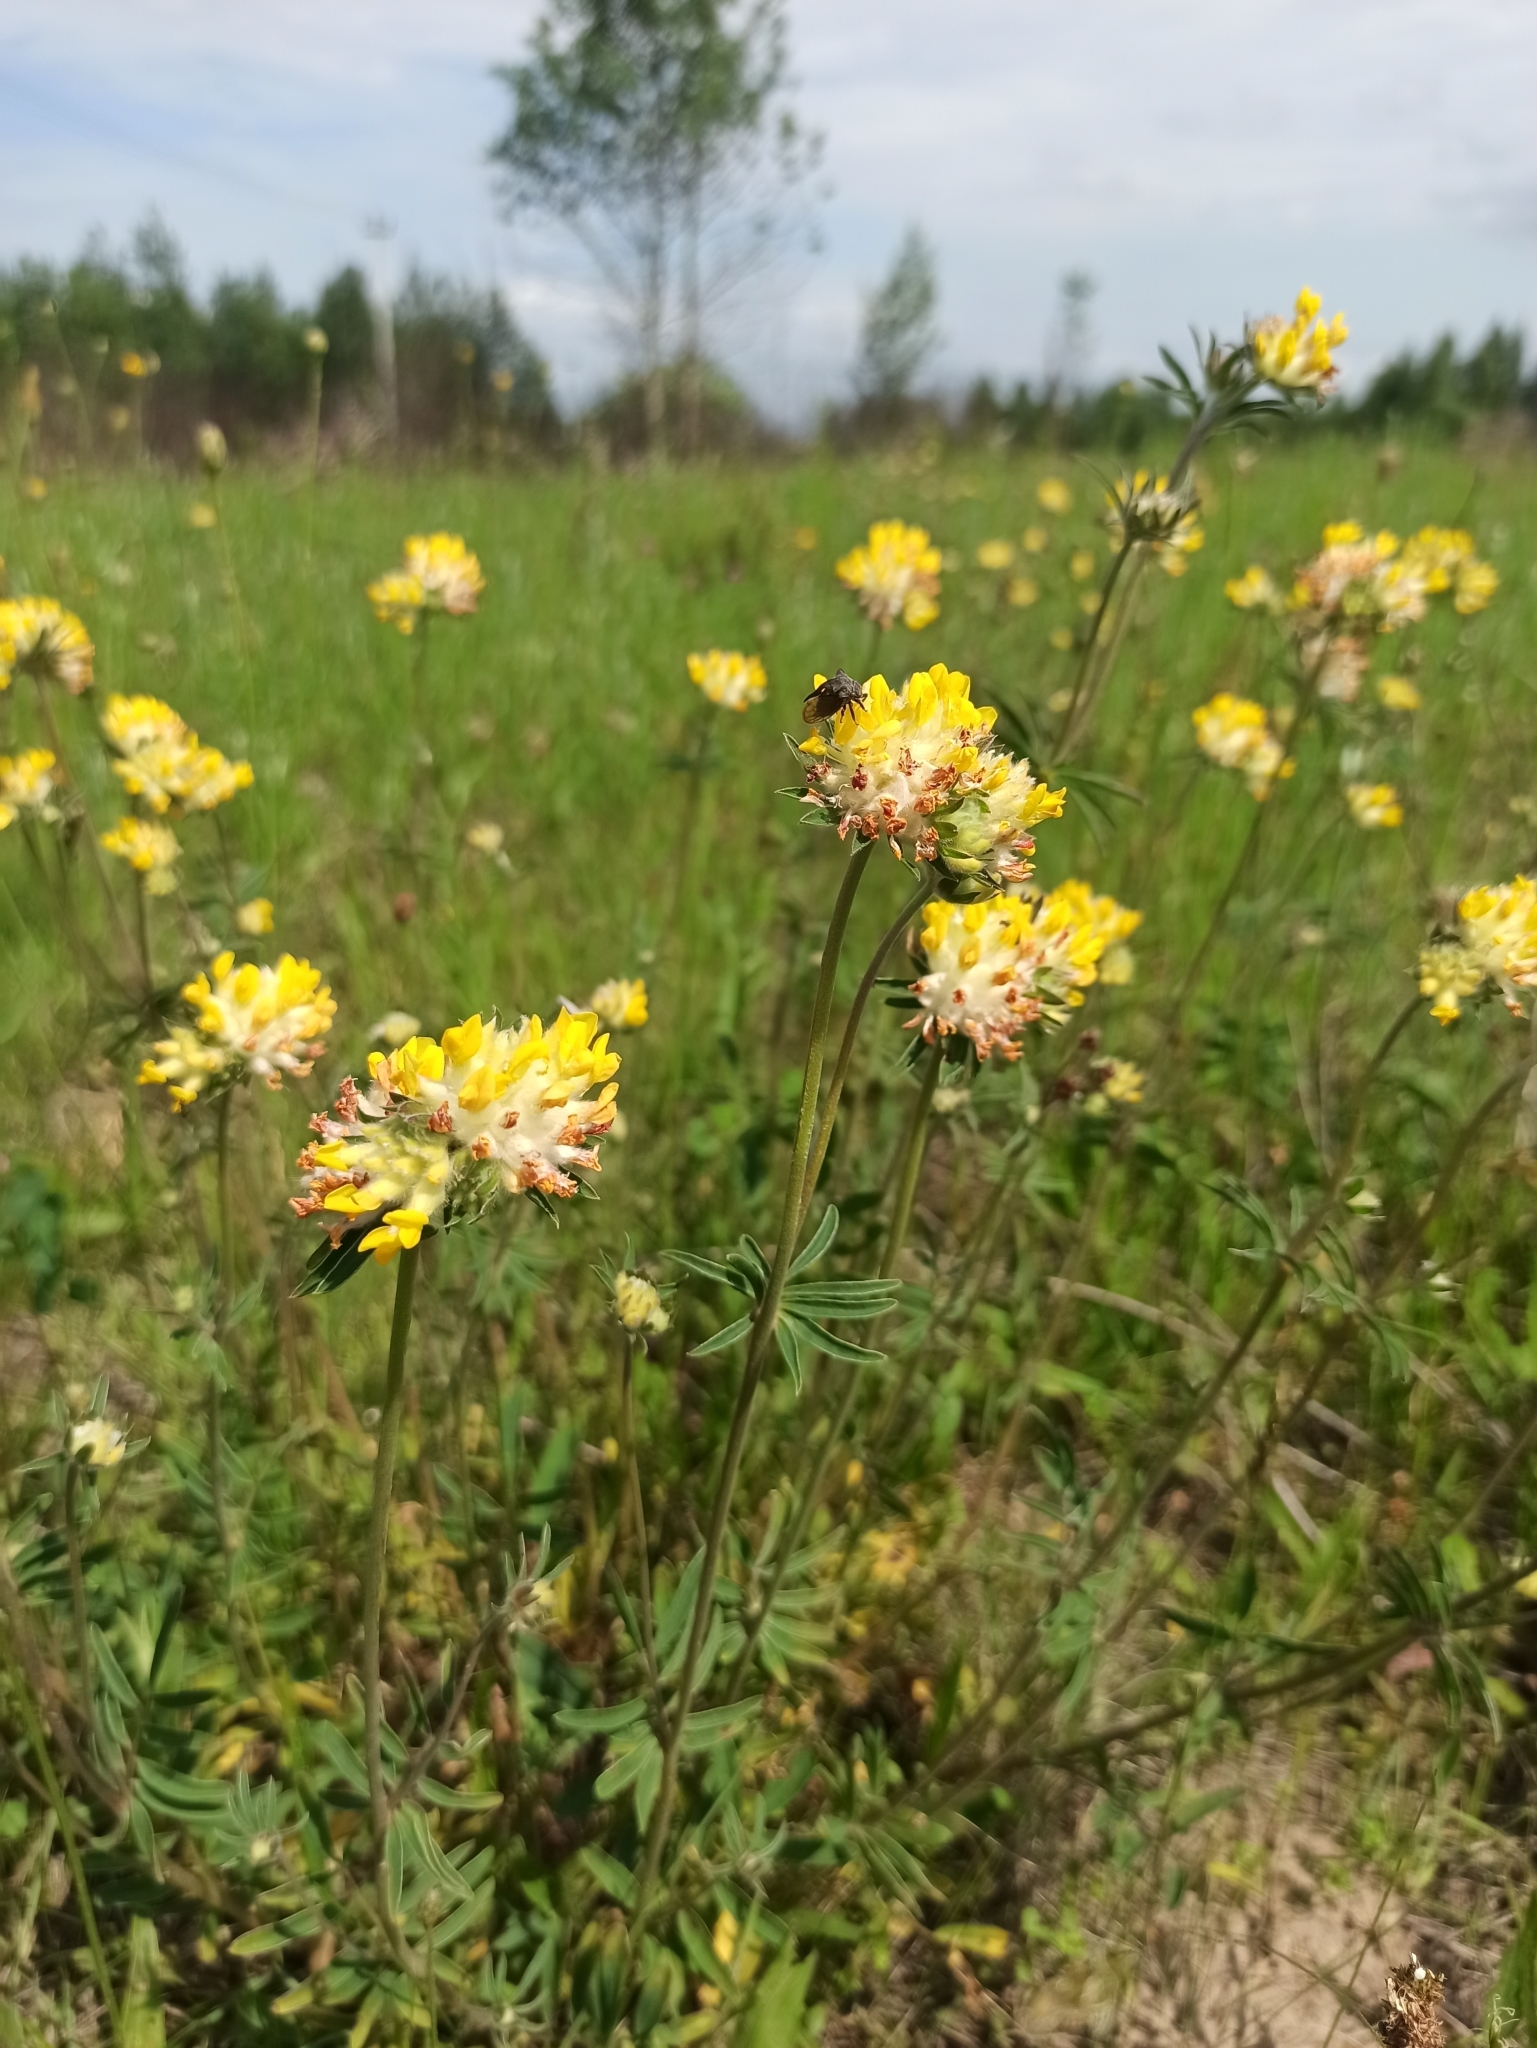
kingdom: Plantae
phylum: Tracheophyta
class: Magnoliopsida
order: Fabales
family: Fabaceae
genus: Anthyllis
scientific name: Anthyllis vulneraria
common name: Kidney vetch
